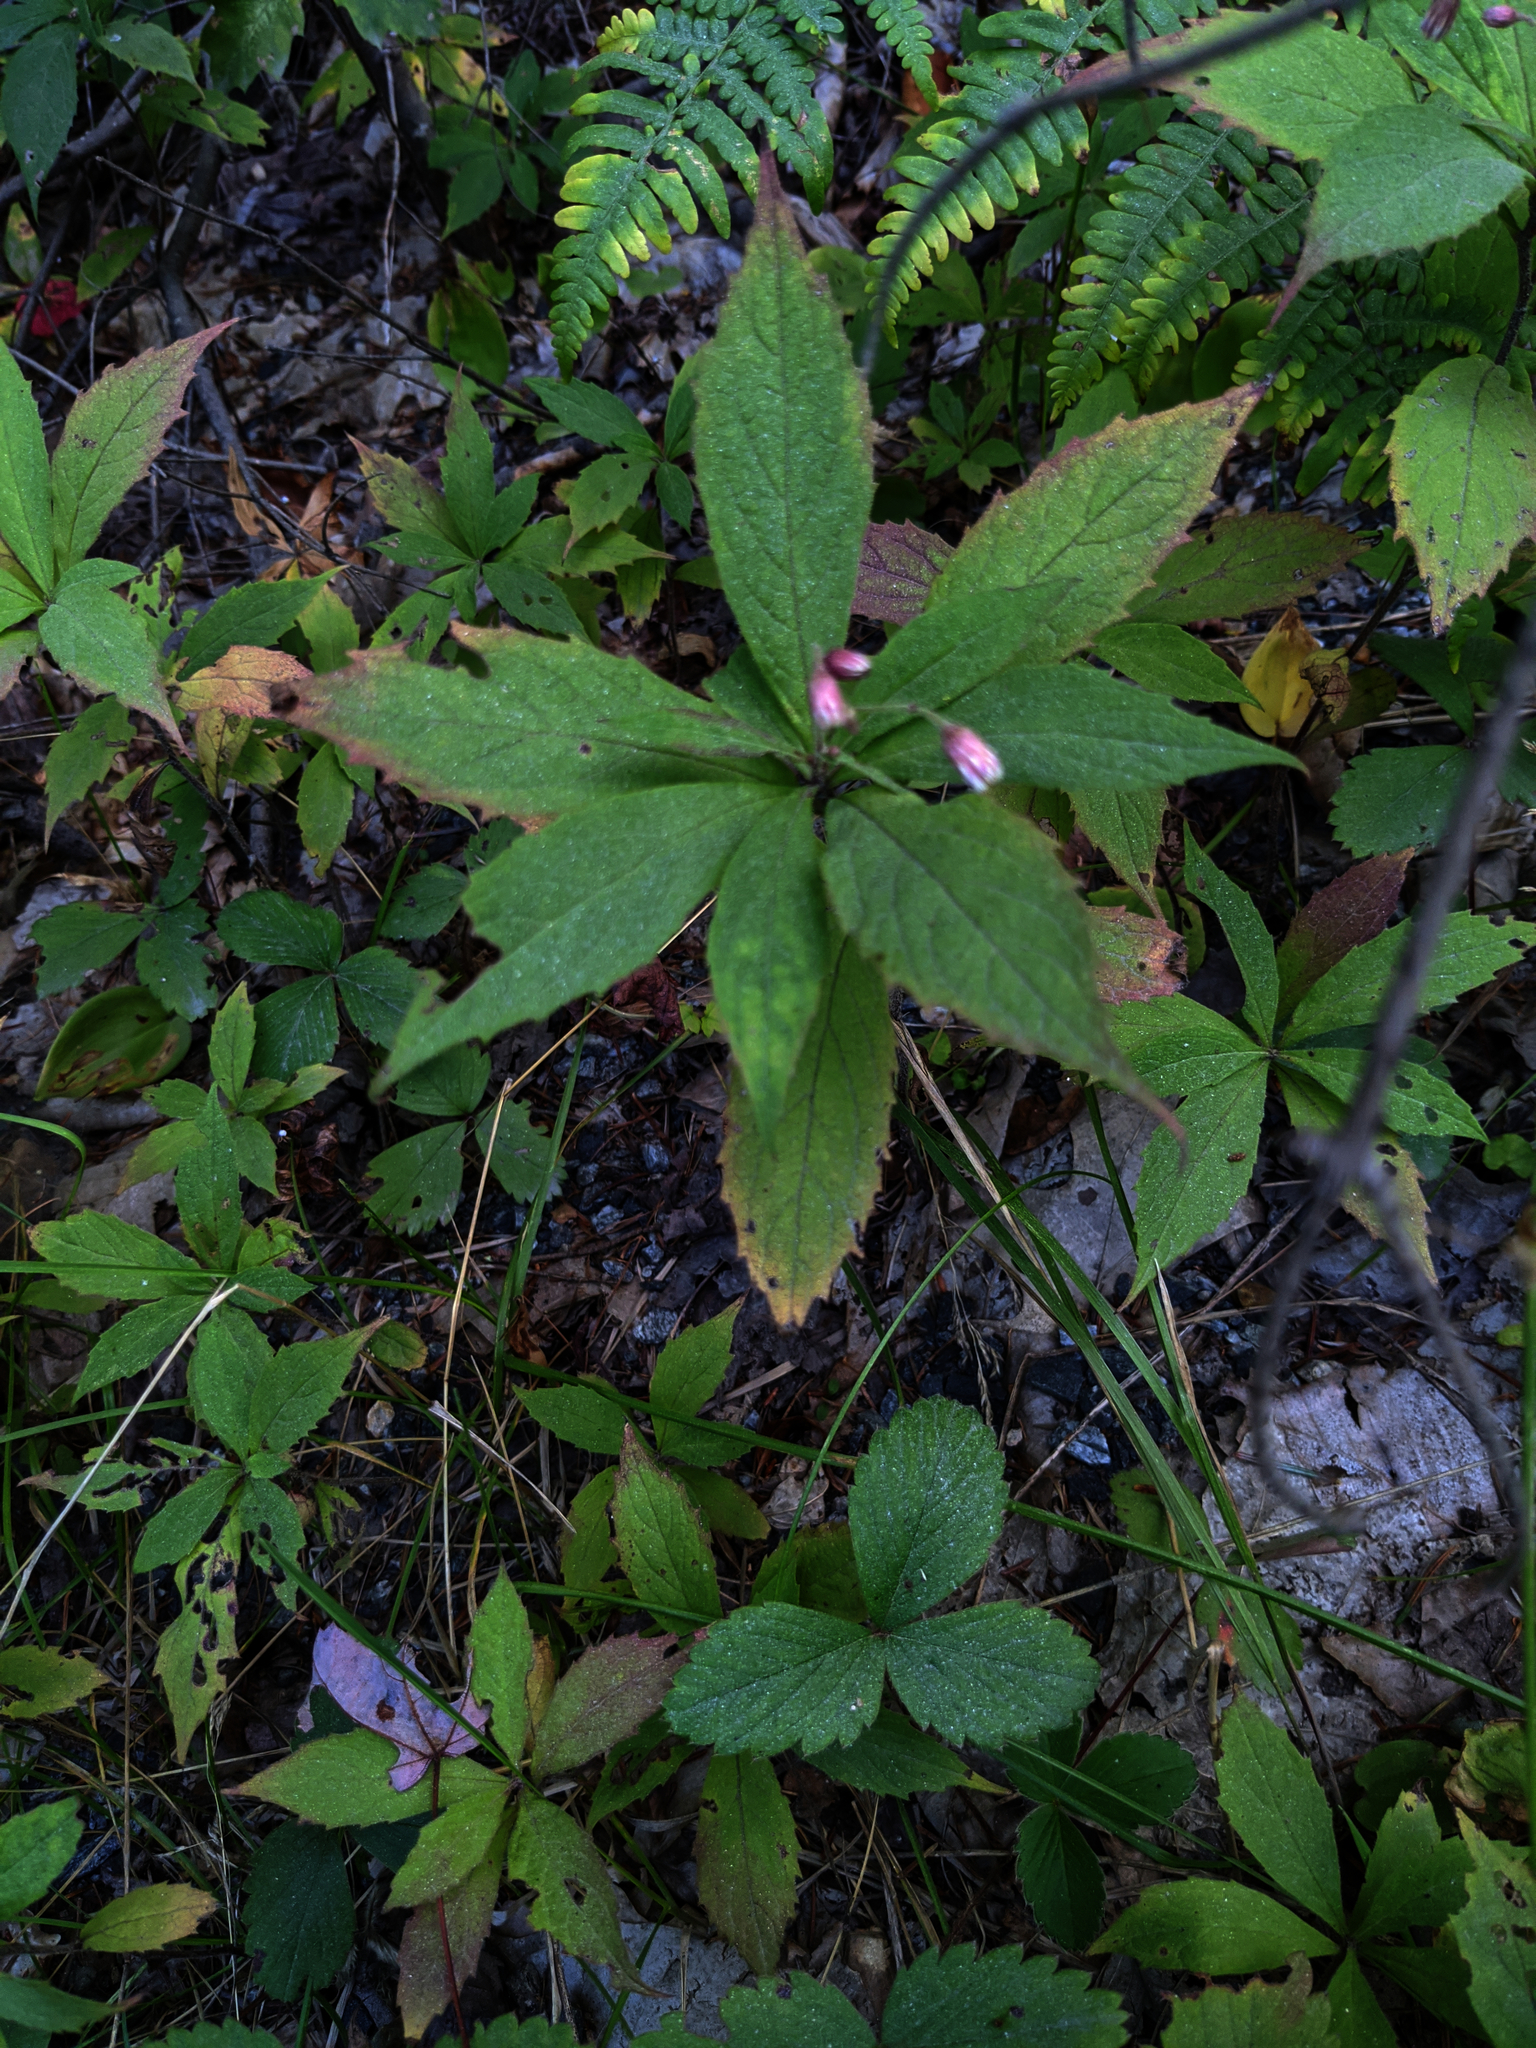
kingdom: Plantae
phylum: Tracheophyta
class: Magnoliopsida
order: Asterales
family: Asteraceae
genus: Oclemena
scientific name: Oclemena acuminata
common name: Mountain aster
